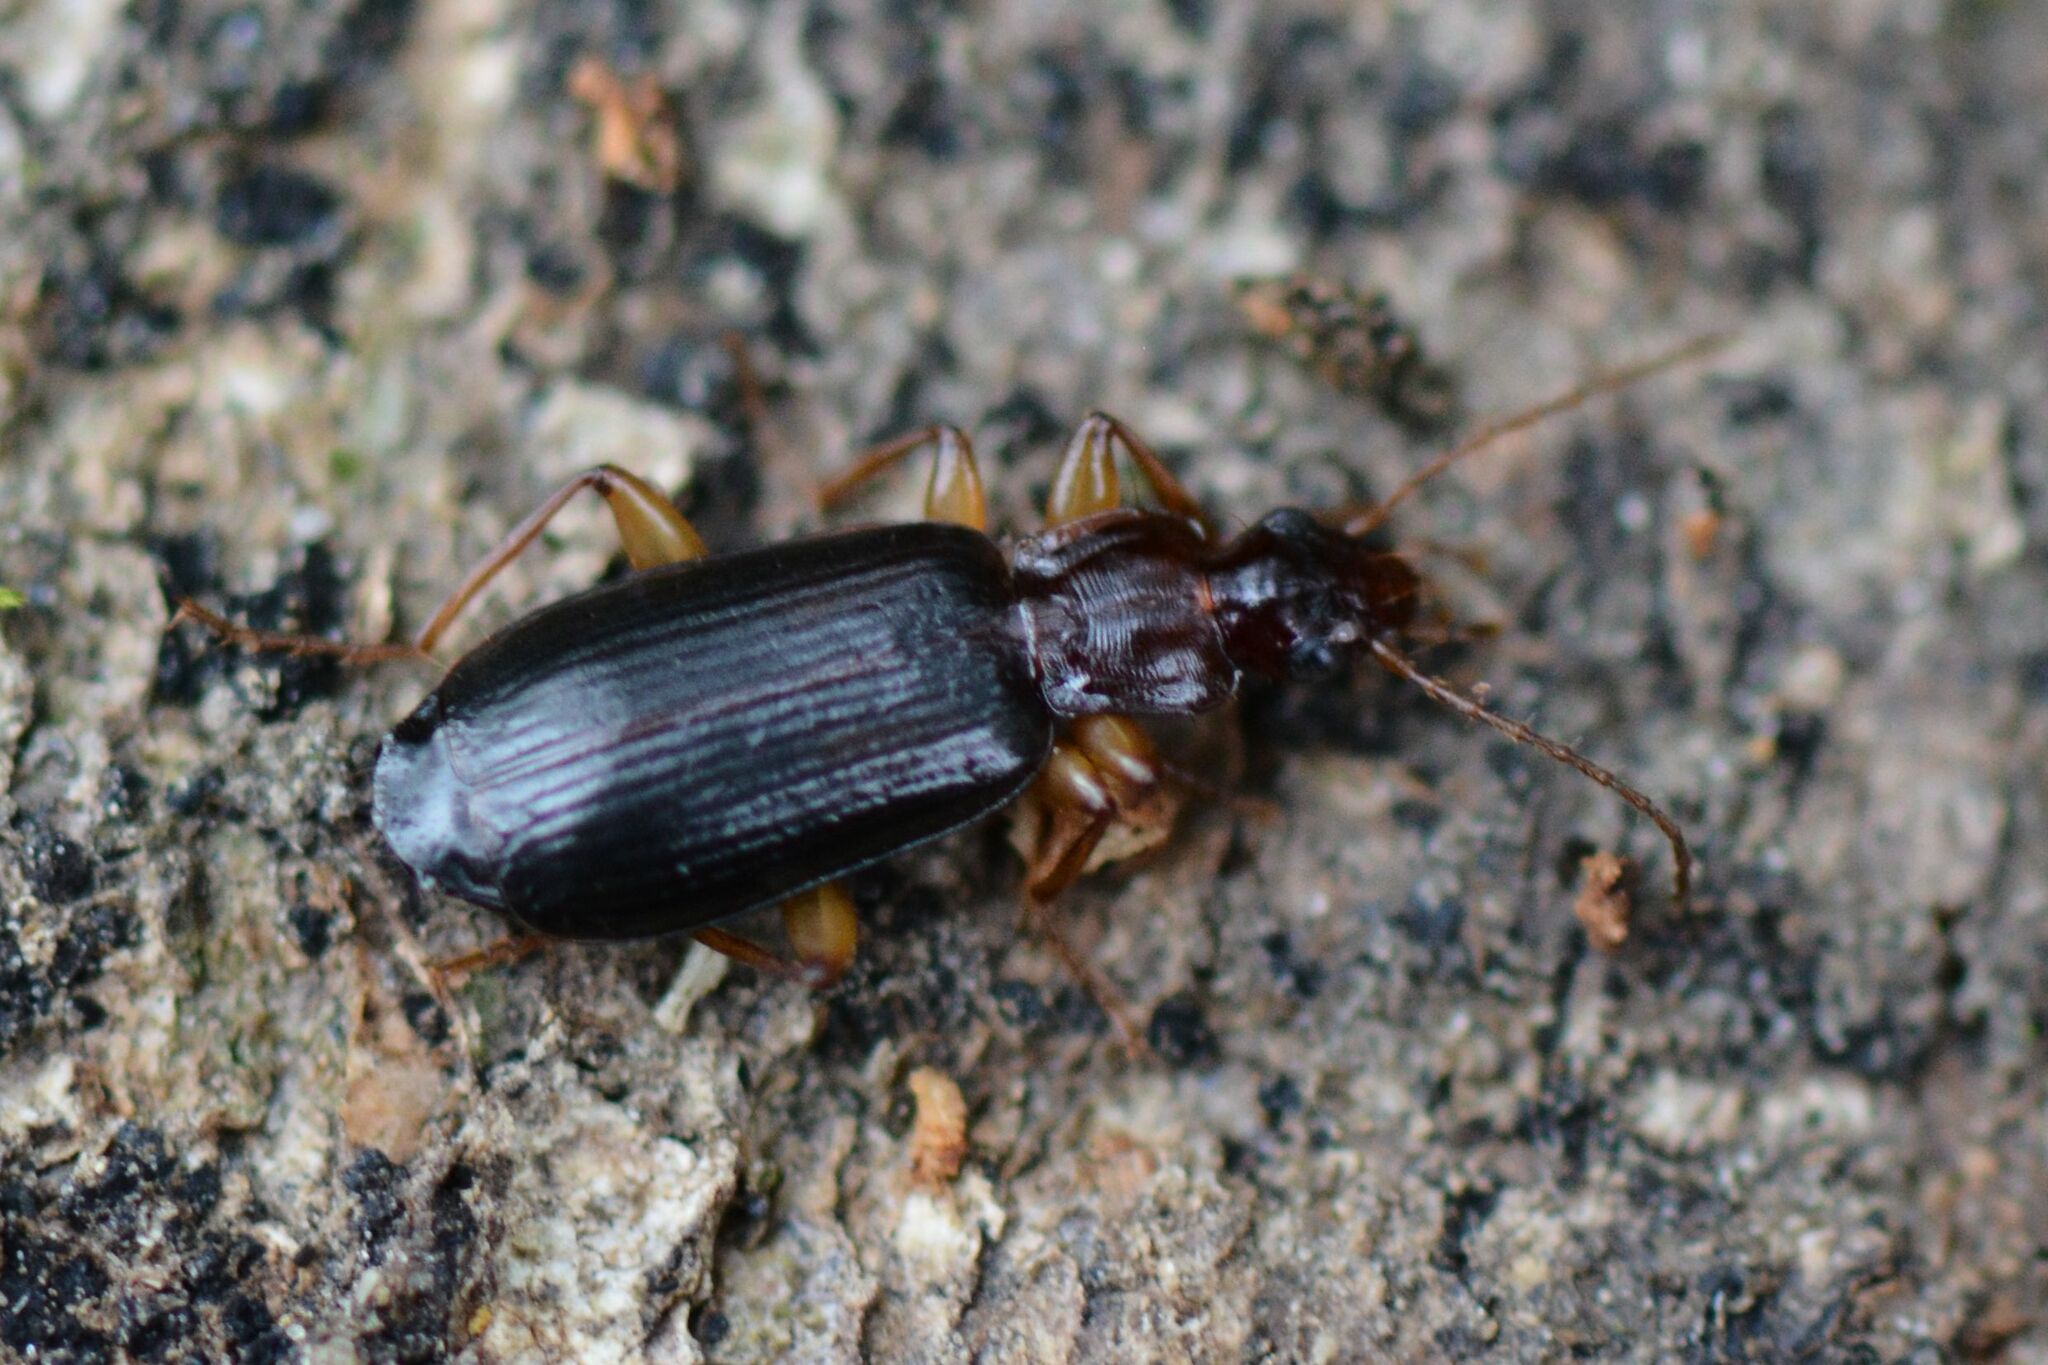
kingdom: Animalia
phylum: Arthropoda
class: Insecta
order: Coleoptera
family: Carabidae
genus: Dromius
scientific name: Dromius agilis
